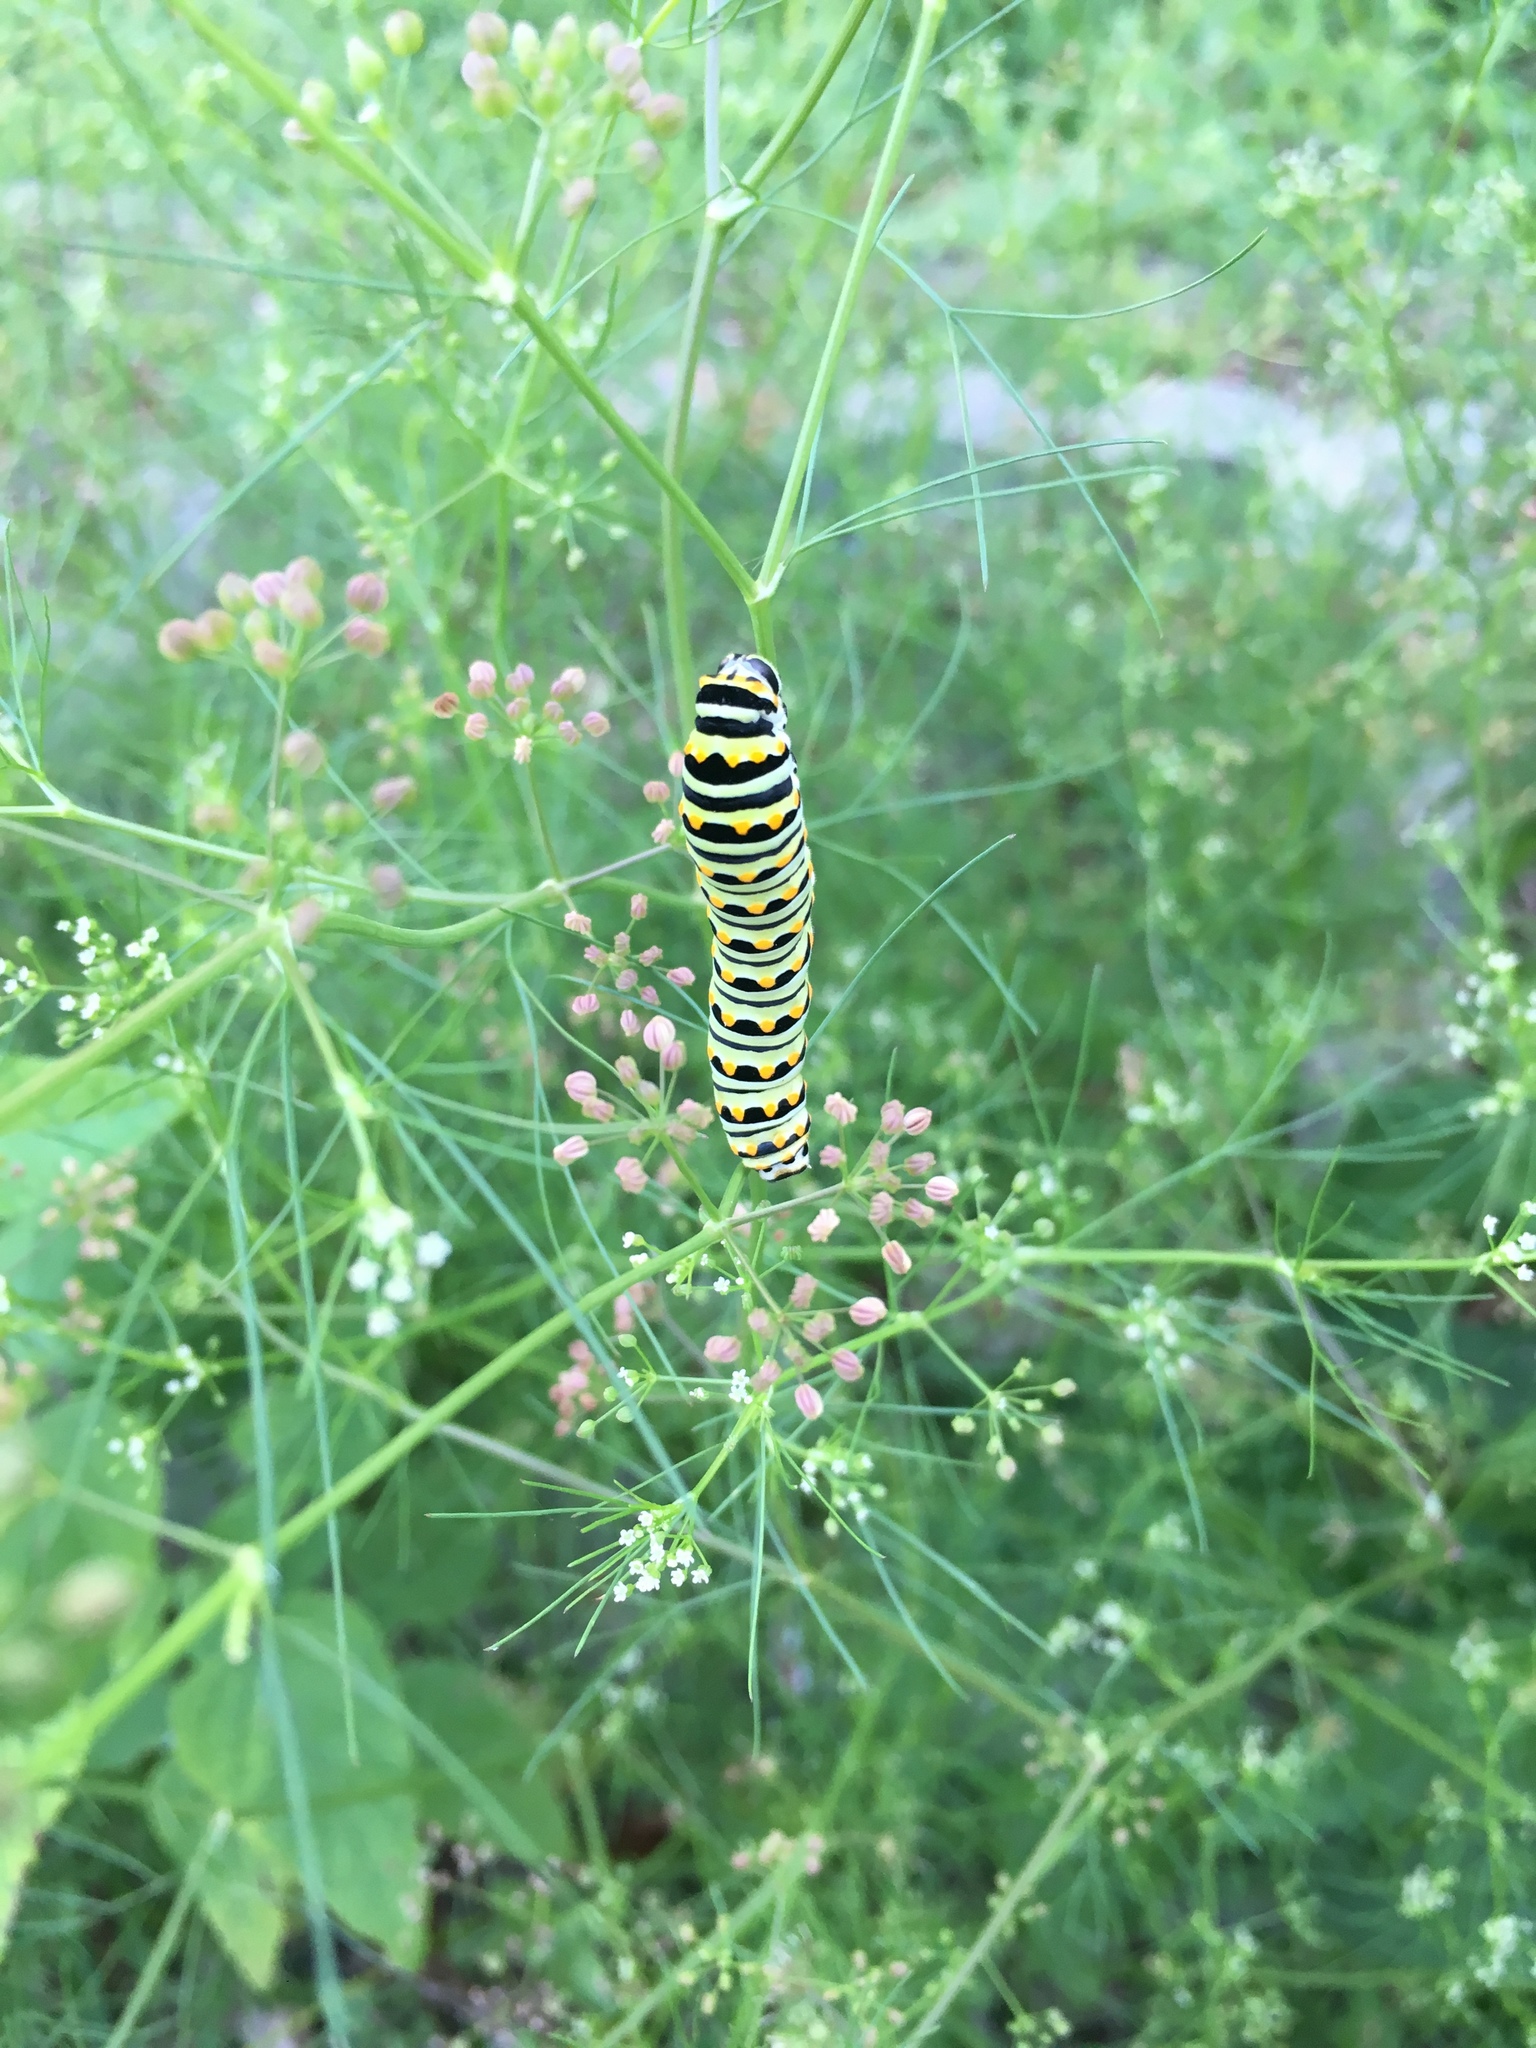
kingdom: Animalia
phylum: Arthropoda
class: Insecta
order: Lepidoptera
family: Papilionidae
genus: Papilio
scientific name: Papilio polyxenes
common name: Black swallowtail
